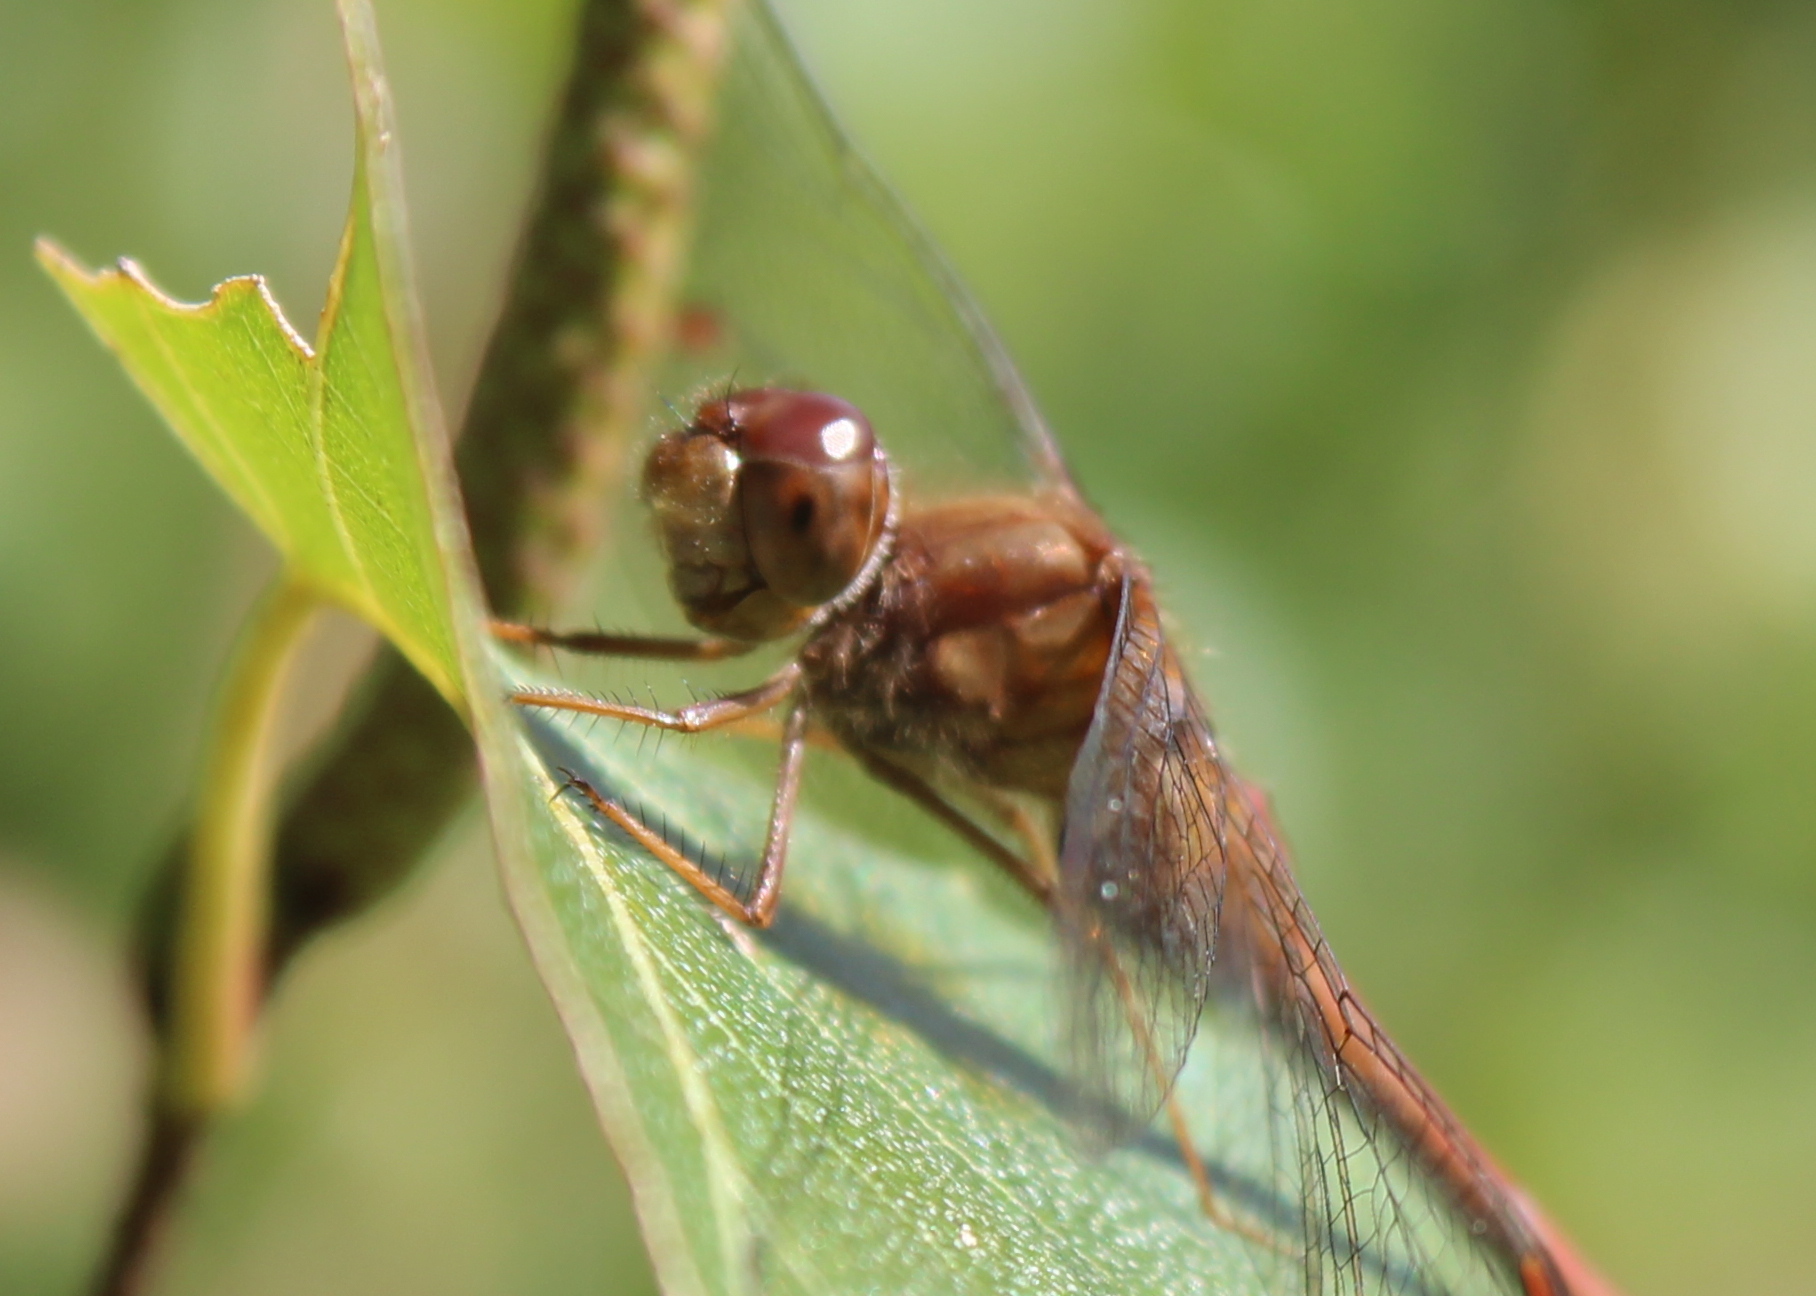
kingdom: Animalia
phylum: Arthropoda
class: Insecta
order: Odonata
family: Libellulidae
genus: Sympetrum
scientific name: Sympetrum vicinum
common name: Autumn meadowhawk
